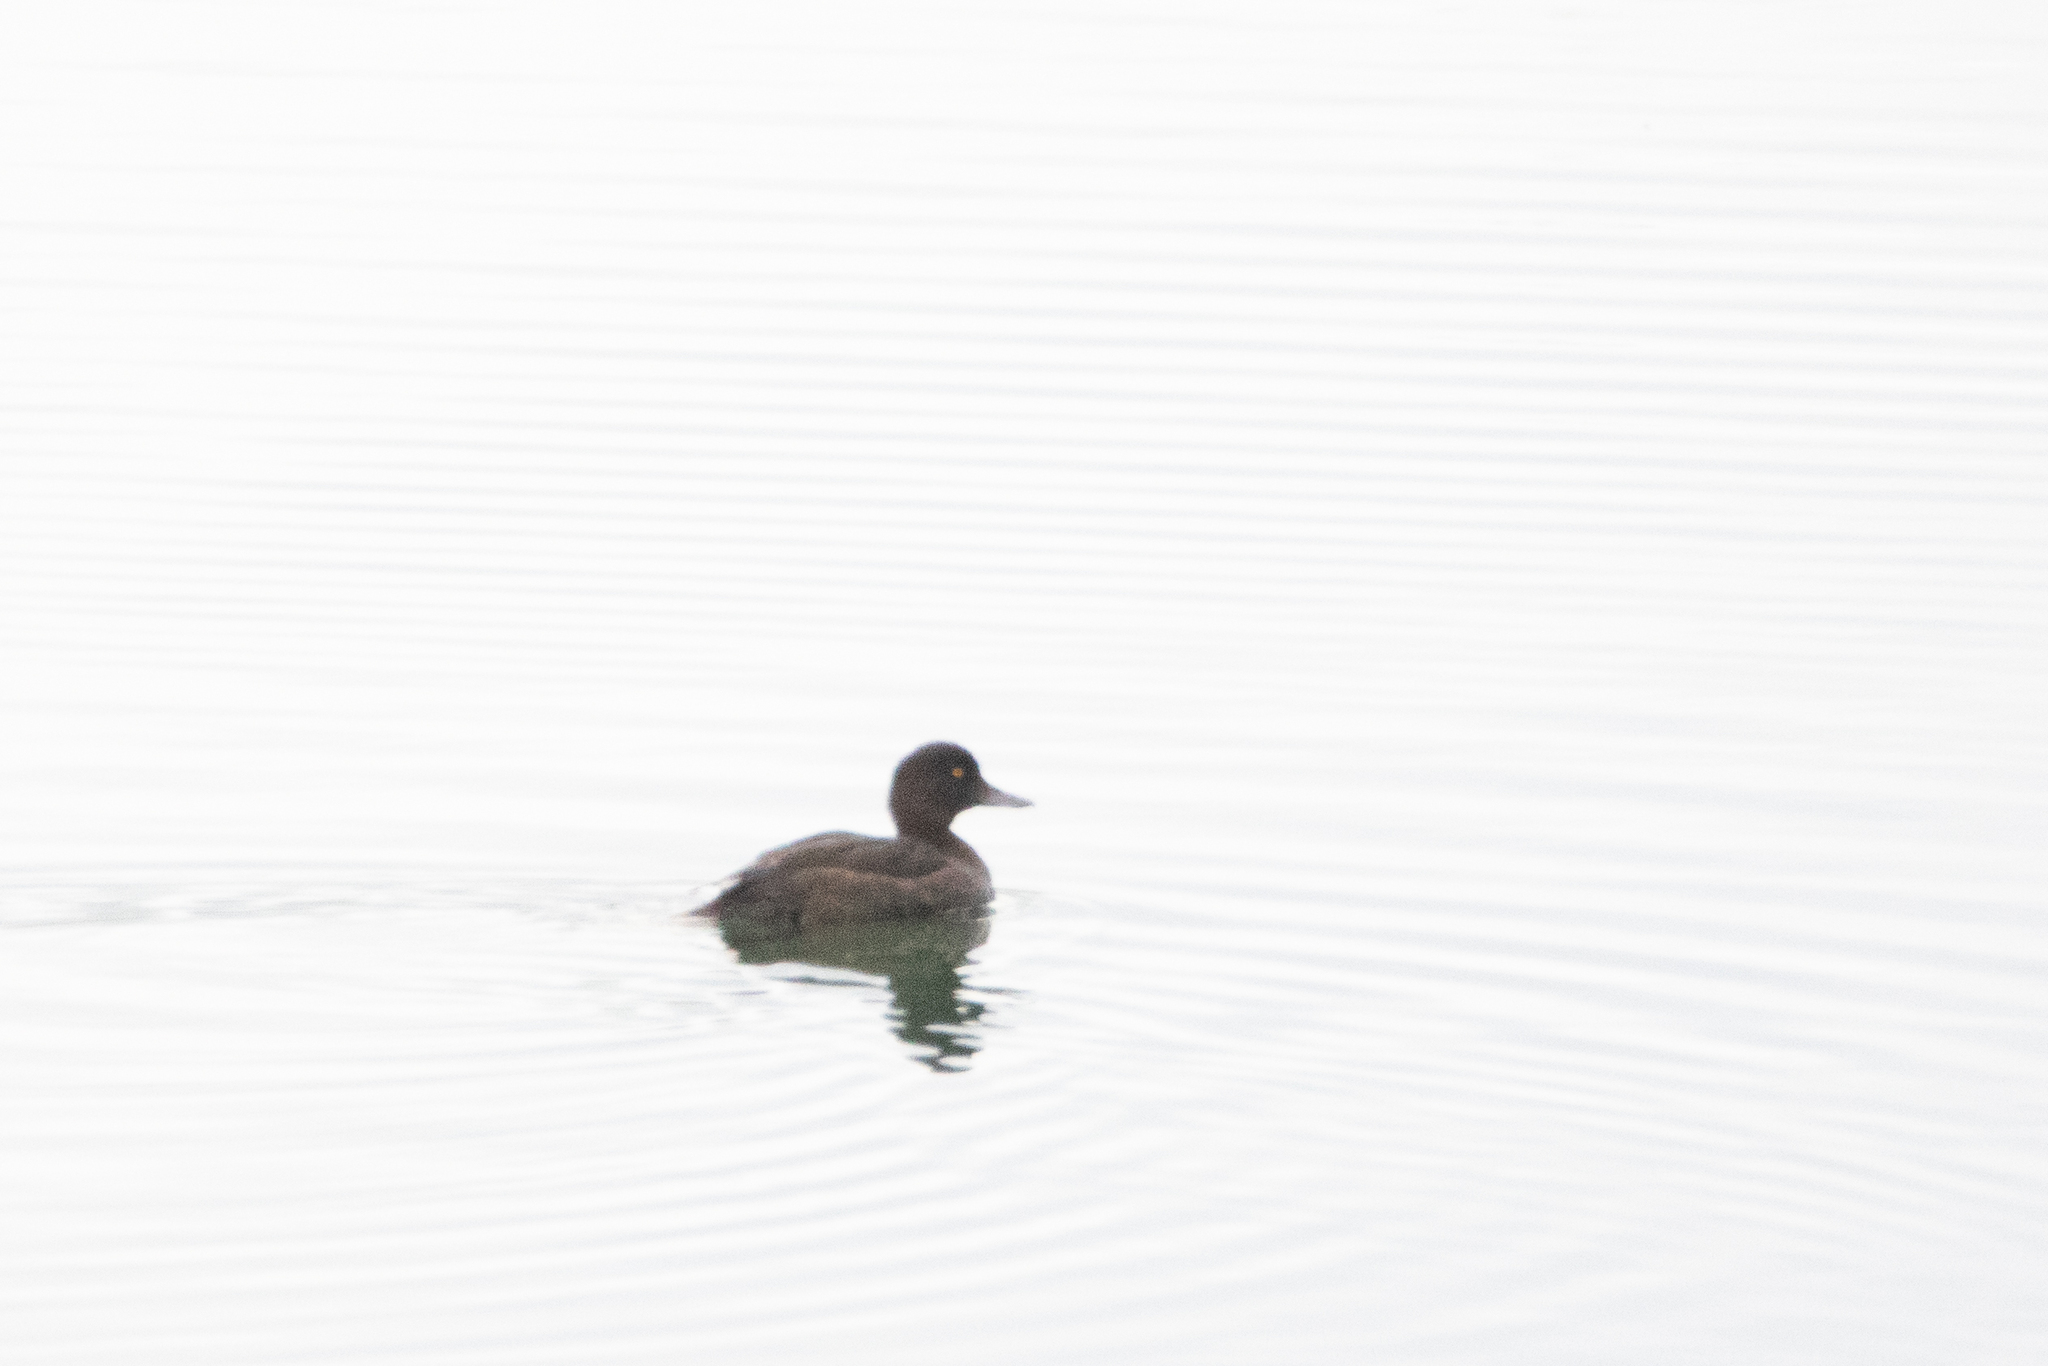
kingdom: Animalia
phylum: Chordata
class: Aves
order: Anseriformes
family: Anatidae
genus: Aythya
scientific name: Aythya fuligula
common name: Tufted duck
